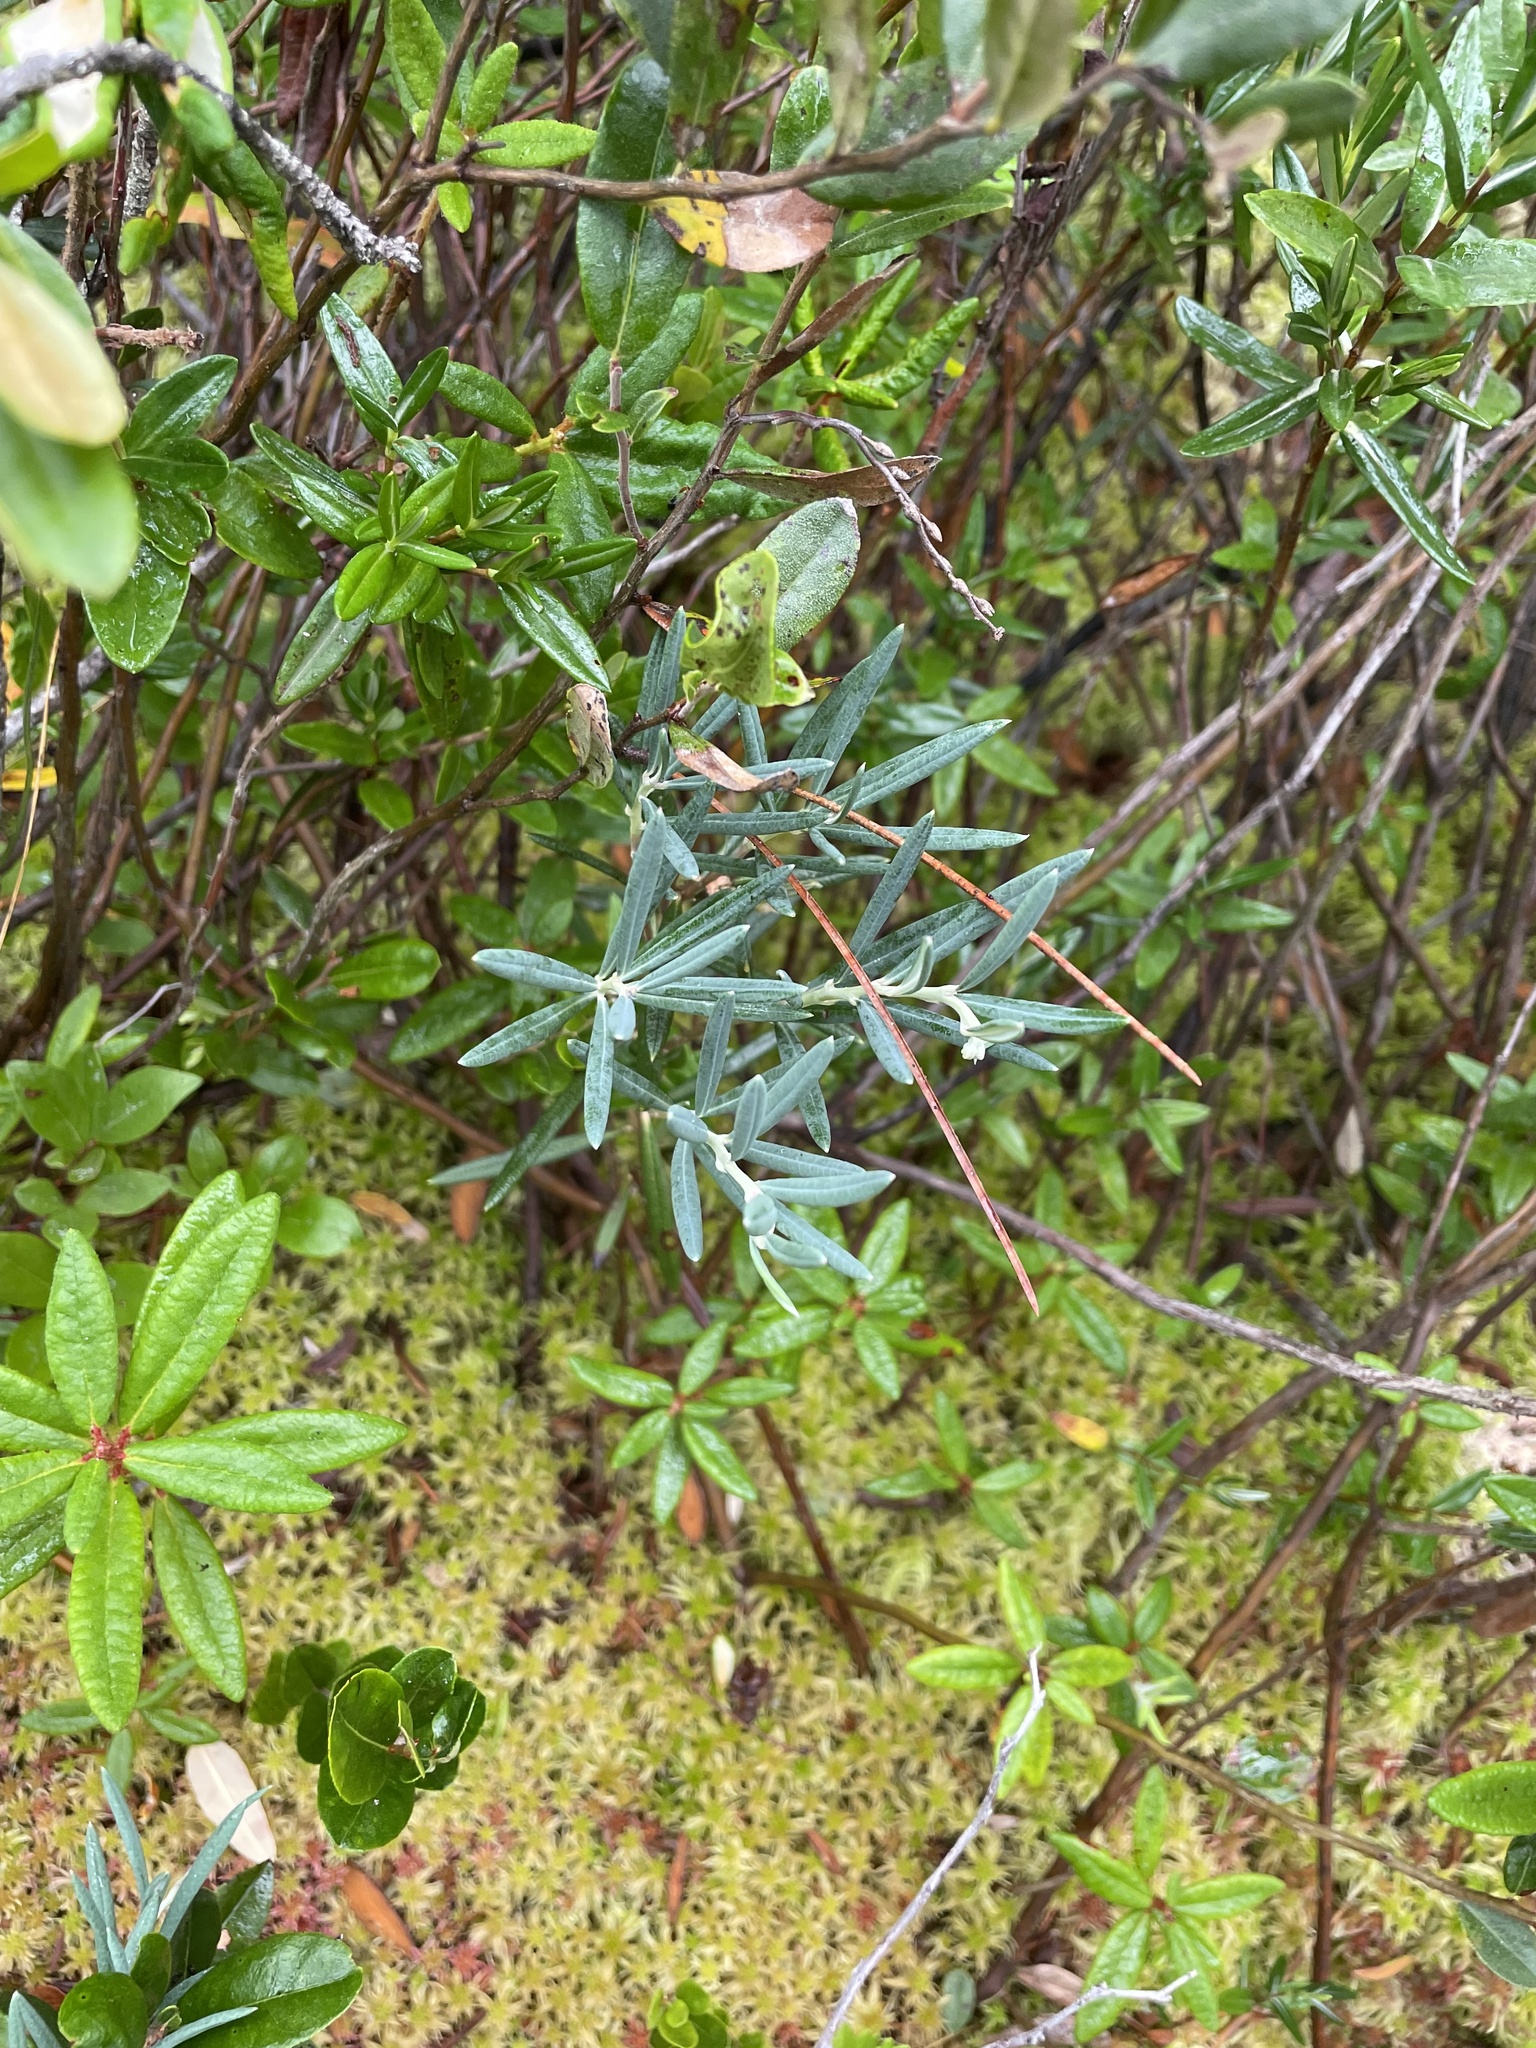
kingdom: Plantae
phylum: Tracheophyta
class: Magnoliopsida
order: Ericales
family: Ericaceae
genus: Andromeda
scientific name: Andromeda polifolia
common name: Bog-rosemary
